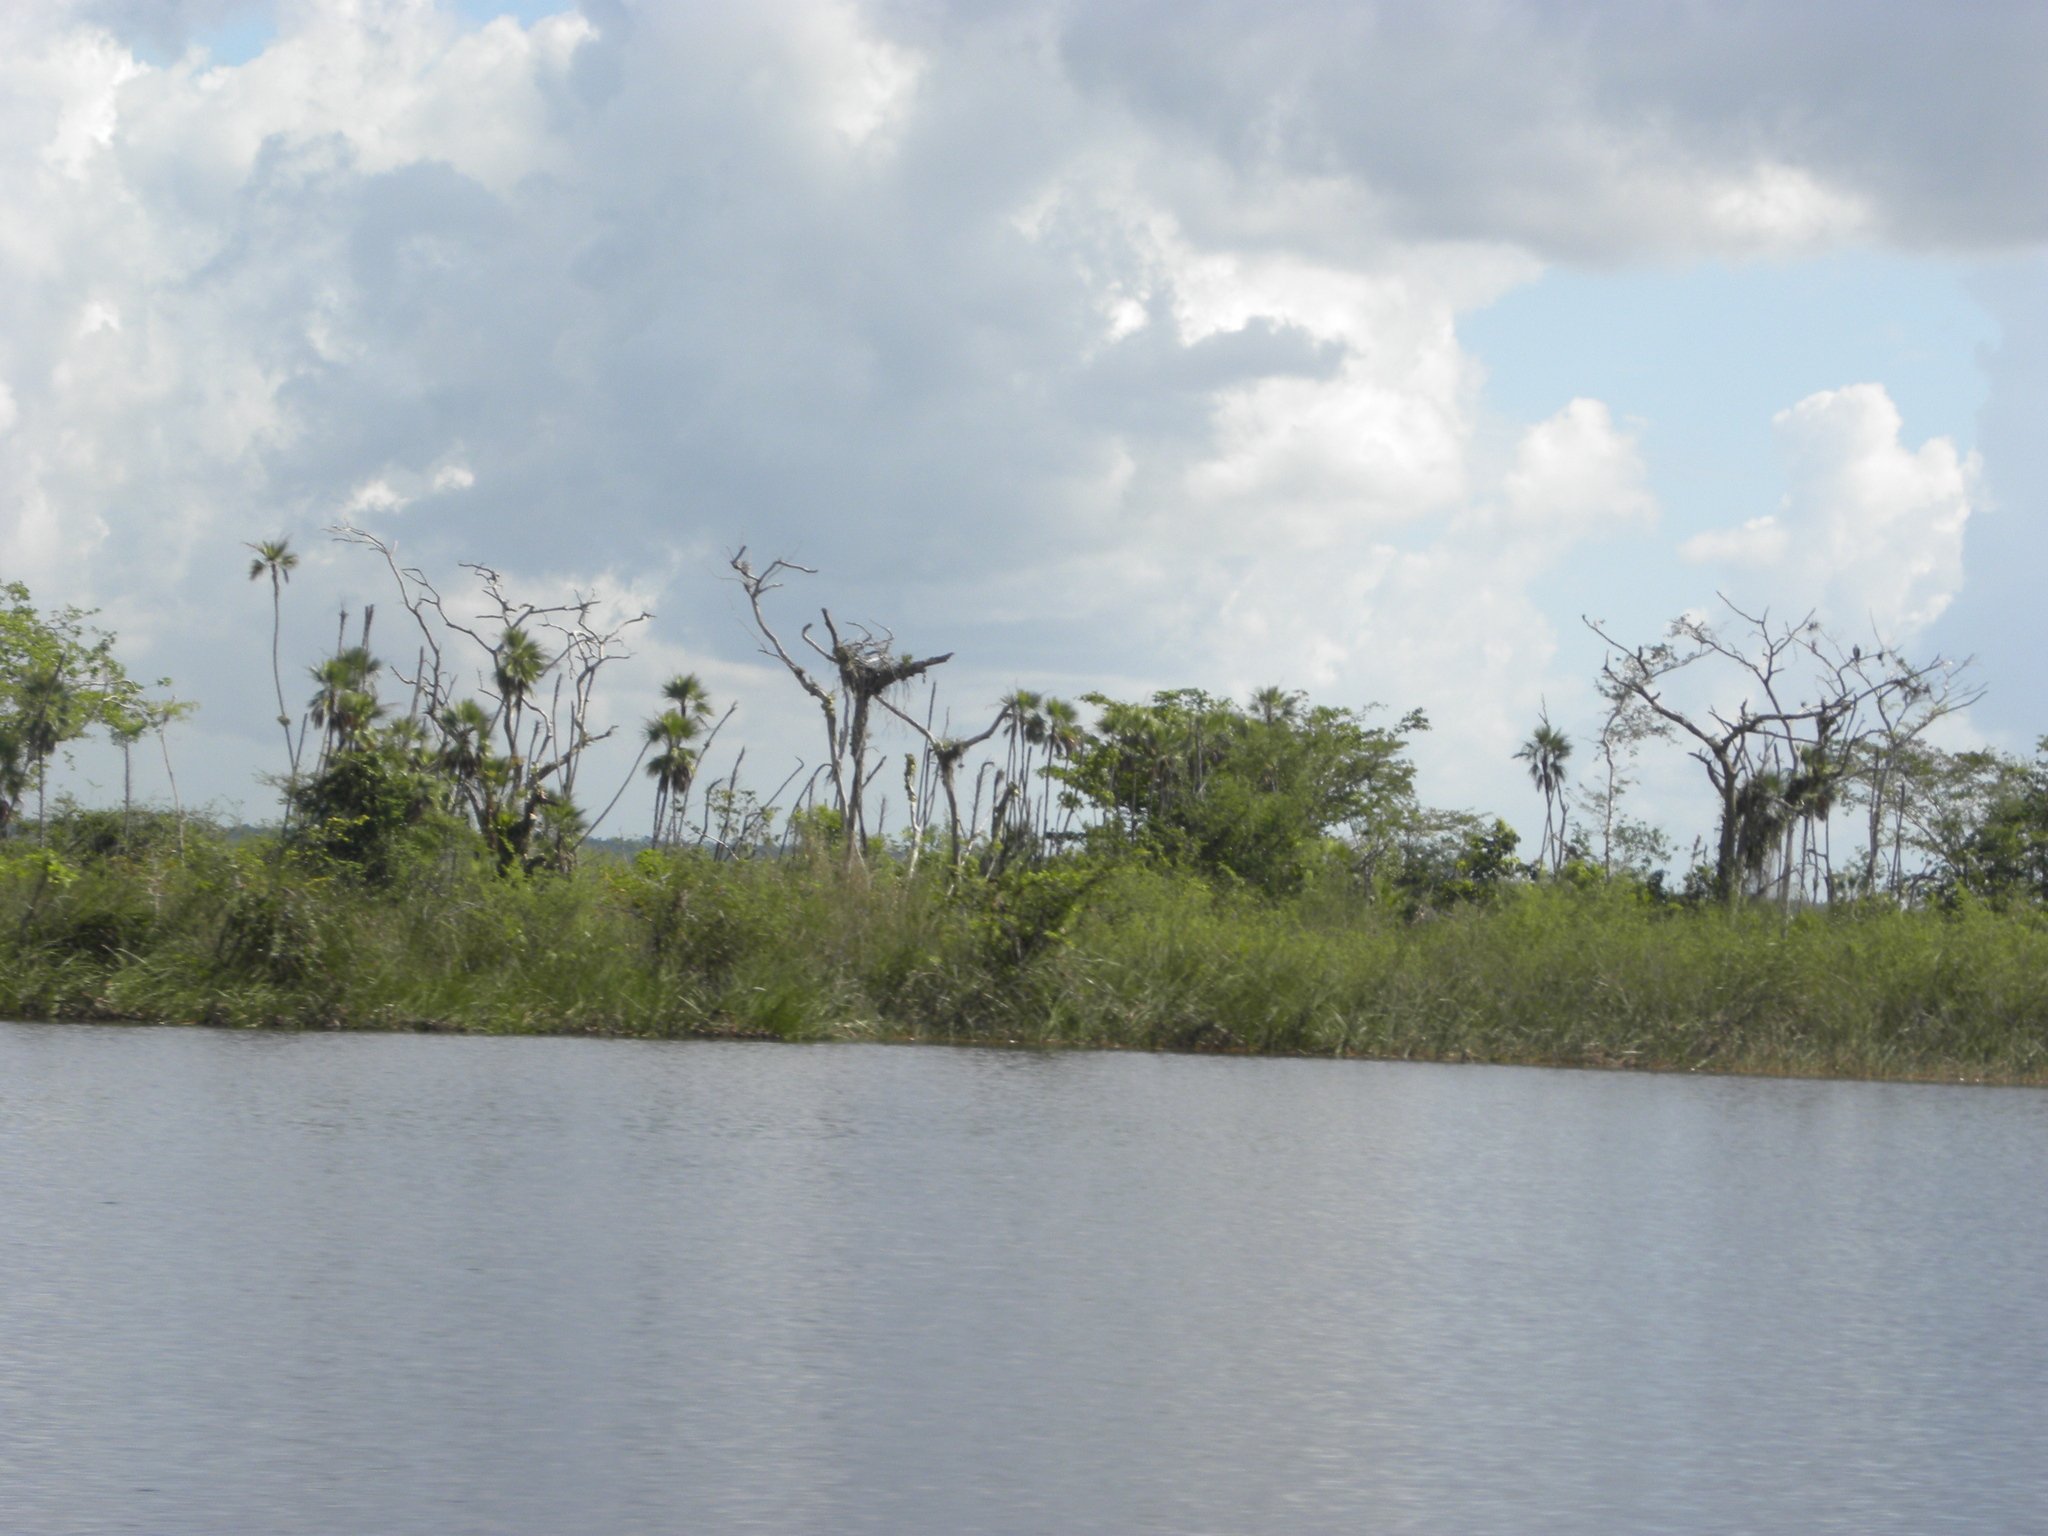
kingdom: Animalia
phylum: Chordata
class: Aves
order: Accipitriformes
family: Pandionidae
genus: Pandion
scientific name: Pandion haliaetus
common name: Osprey
